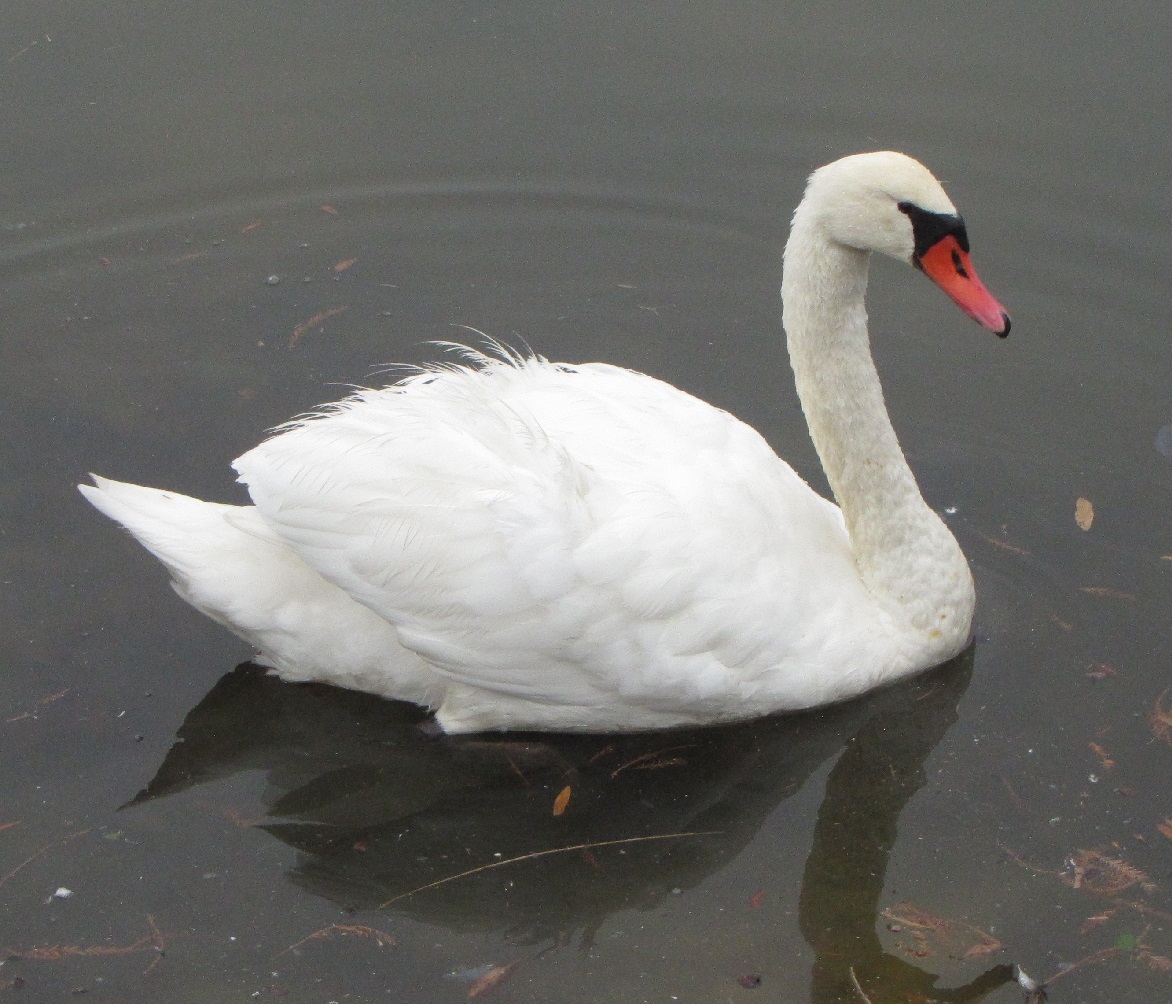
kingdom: Animalia
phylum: Chordata
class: Aves
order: Anseriformes
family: Anatidae
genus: Cygnus
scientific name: Cygnus olor
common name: Mute swan
